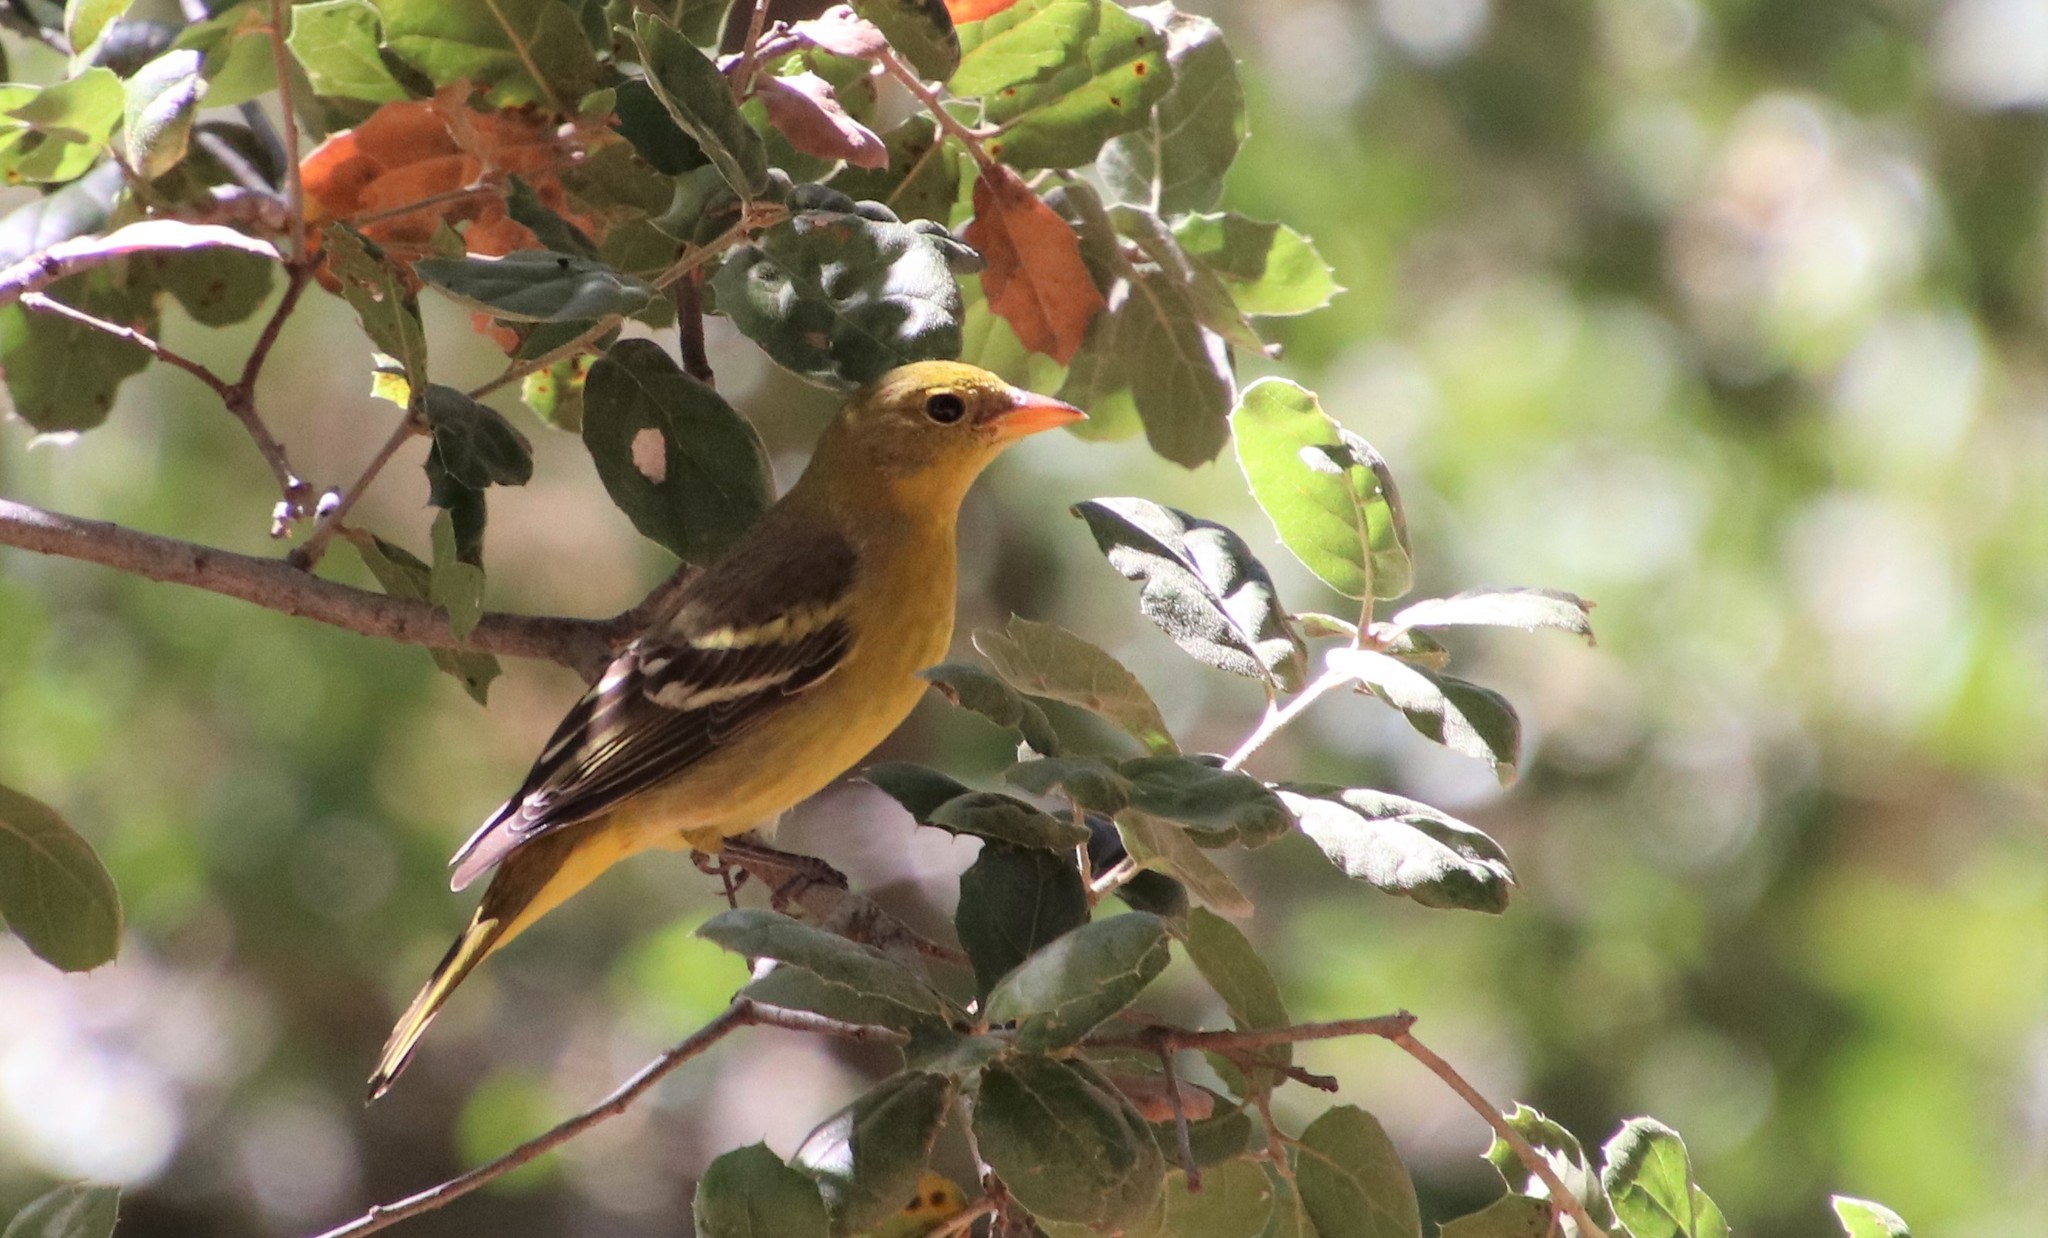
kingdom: Animalia
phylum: Chordata
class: Aves
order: Passeriformes
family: Cardinalidae
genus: Piranga
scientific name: Piranga ludoviciana
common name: Western tanager
